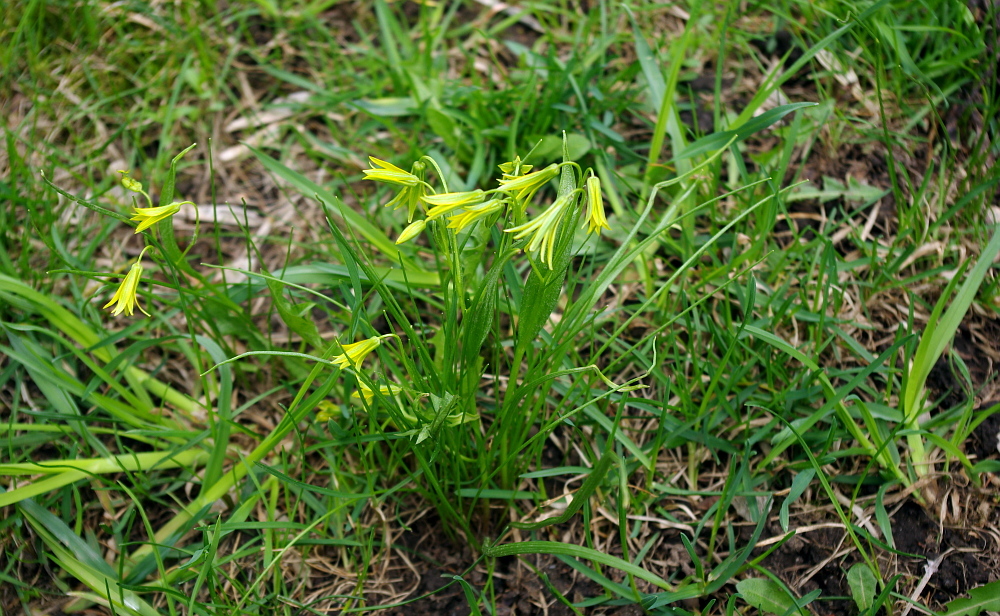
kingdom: Plantae
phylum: Tracheophyta
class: Liliopsida
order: Liliales
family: Liliaceae
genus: Gagea
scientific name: Gagea minima
